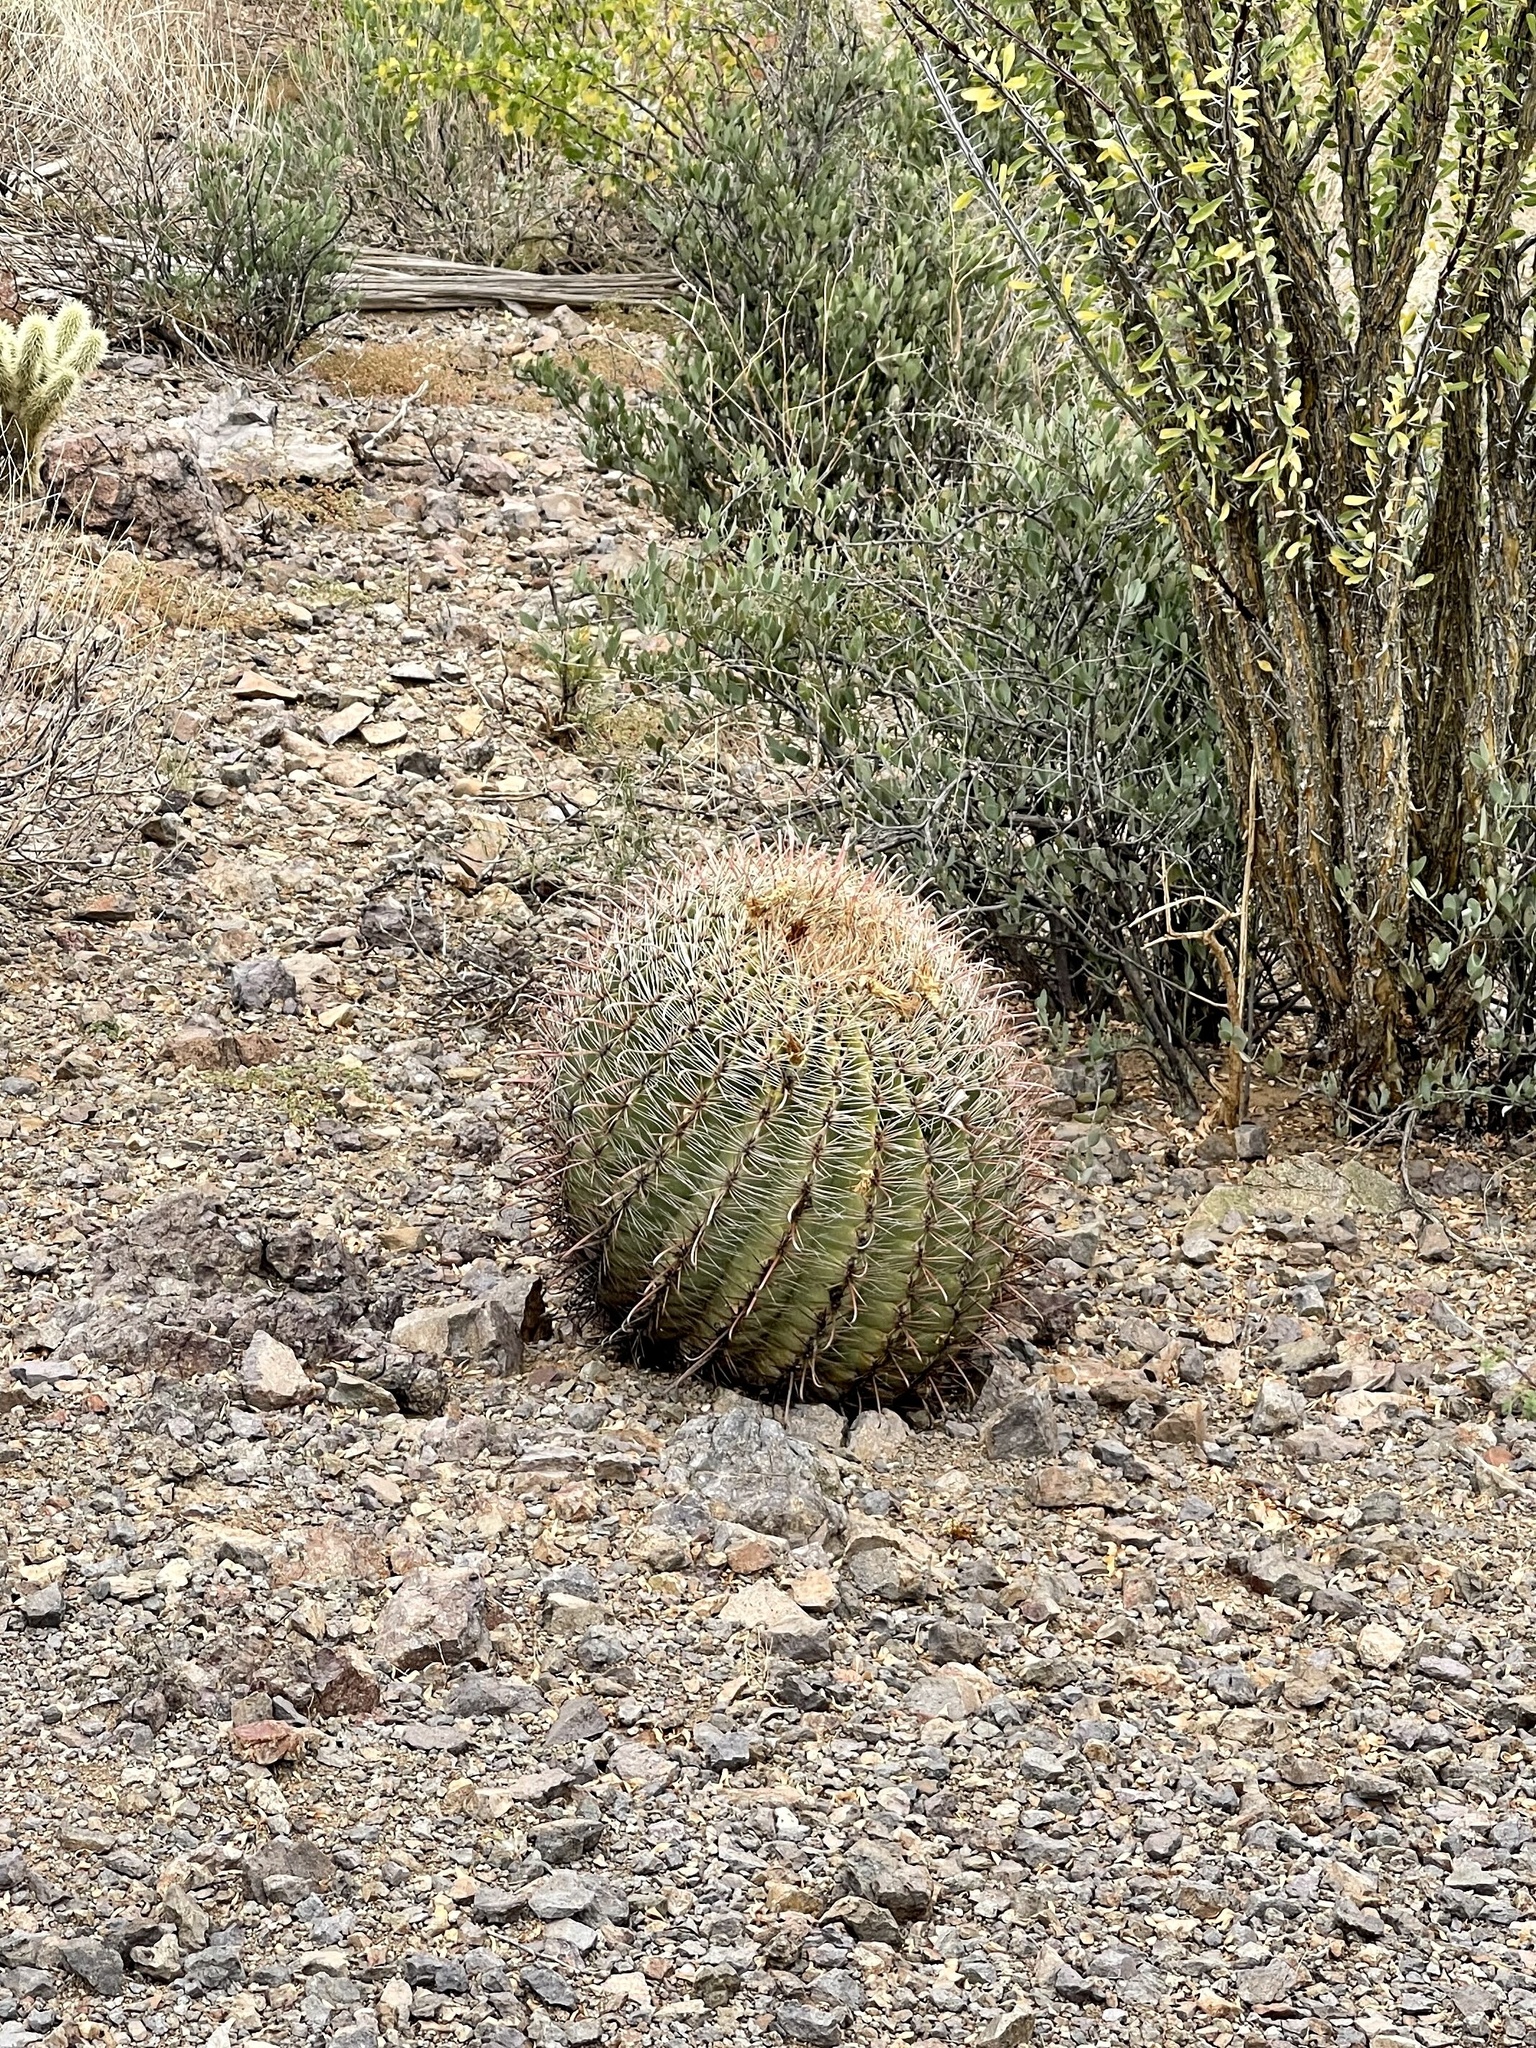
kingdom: Plantae
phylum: Tracheophyta
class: Magnoliopsida
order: Caryophyllales
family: Cactaceae
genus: Ferocactus
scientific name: Ferocactus wislizeni
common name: Candy barrel cactus
